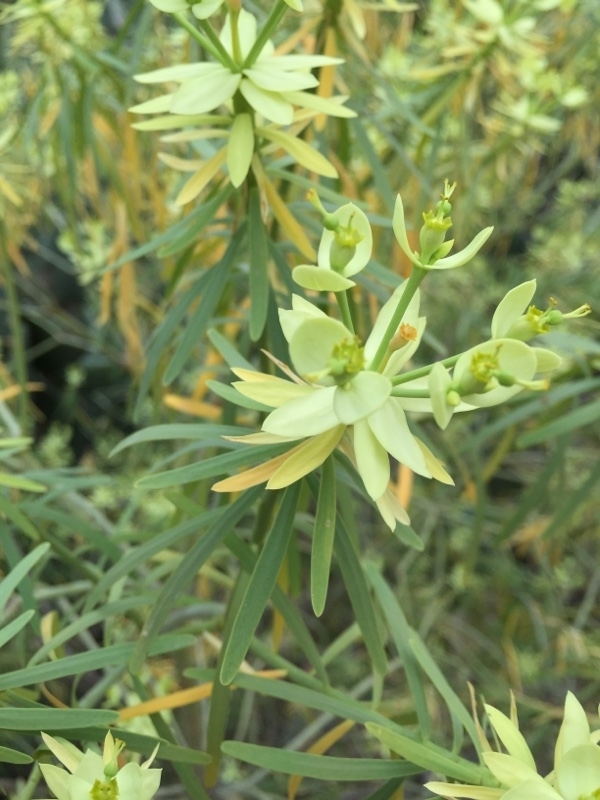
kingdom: Plantae
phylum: Tracheophyta
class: Magnoliopsida
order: Malpighiales
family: Euphorbiaceae
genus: Euphorbia
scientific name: Euphorbia regis-jubae
